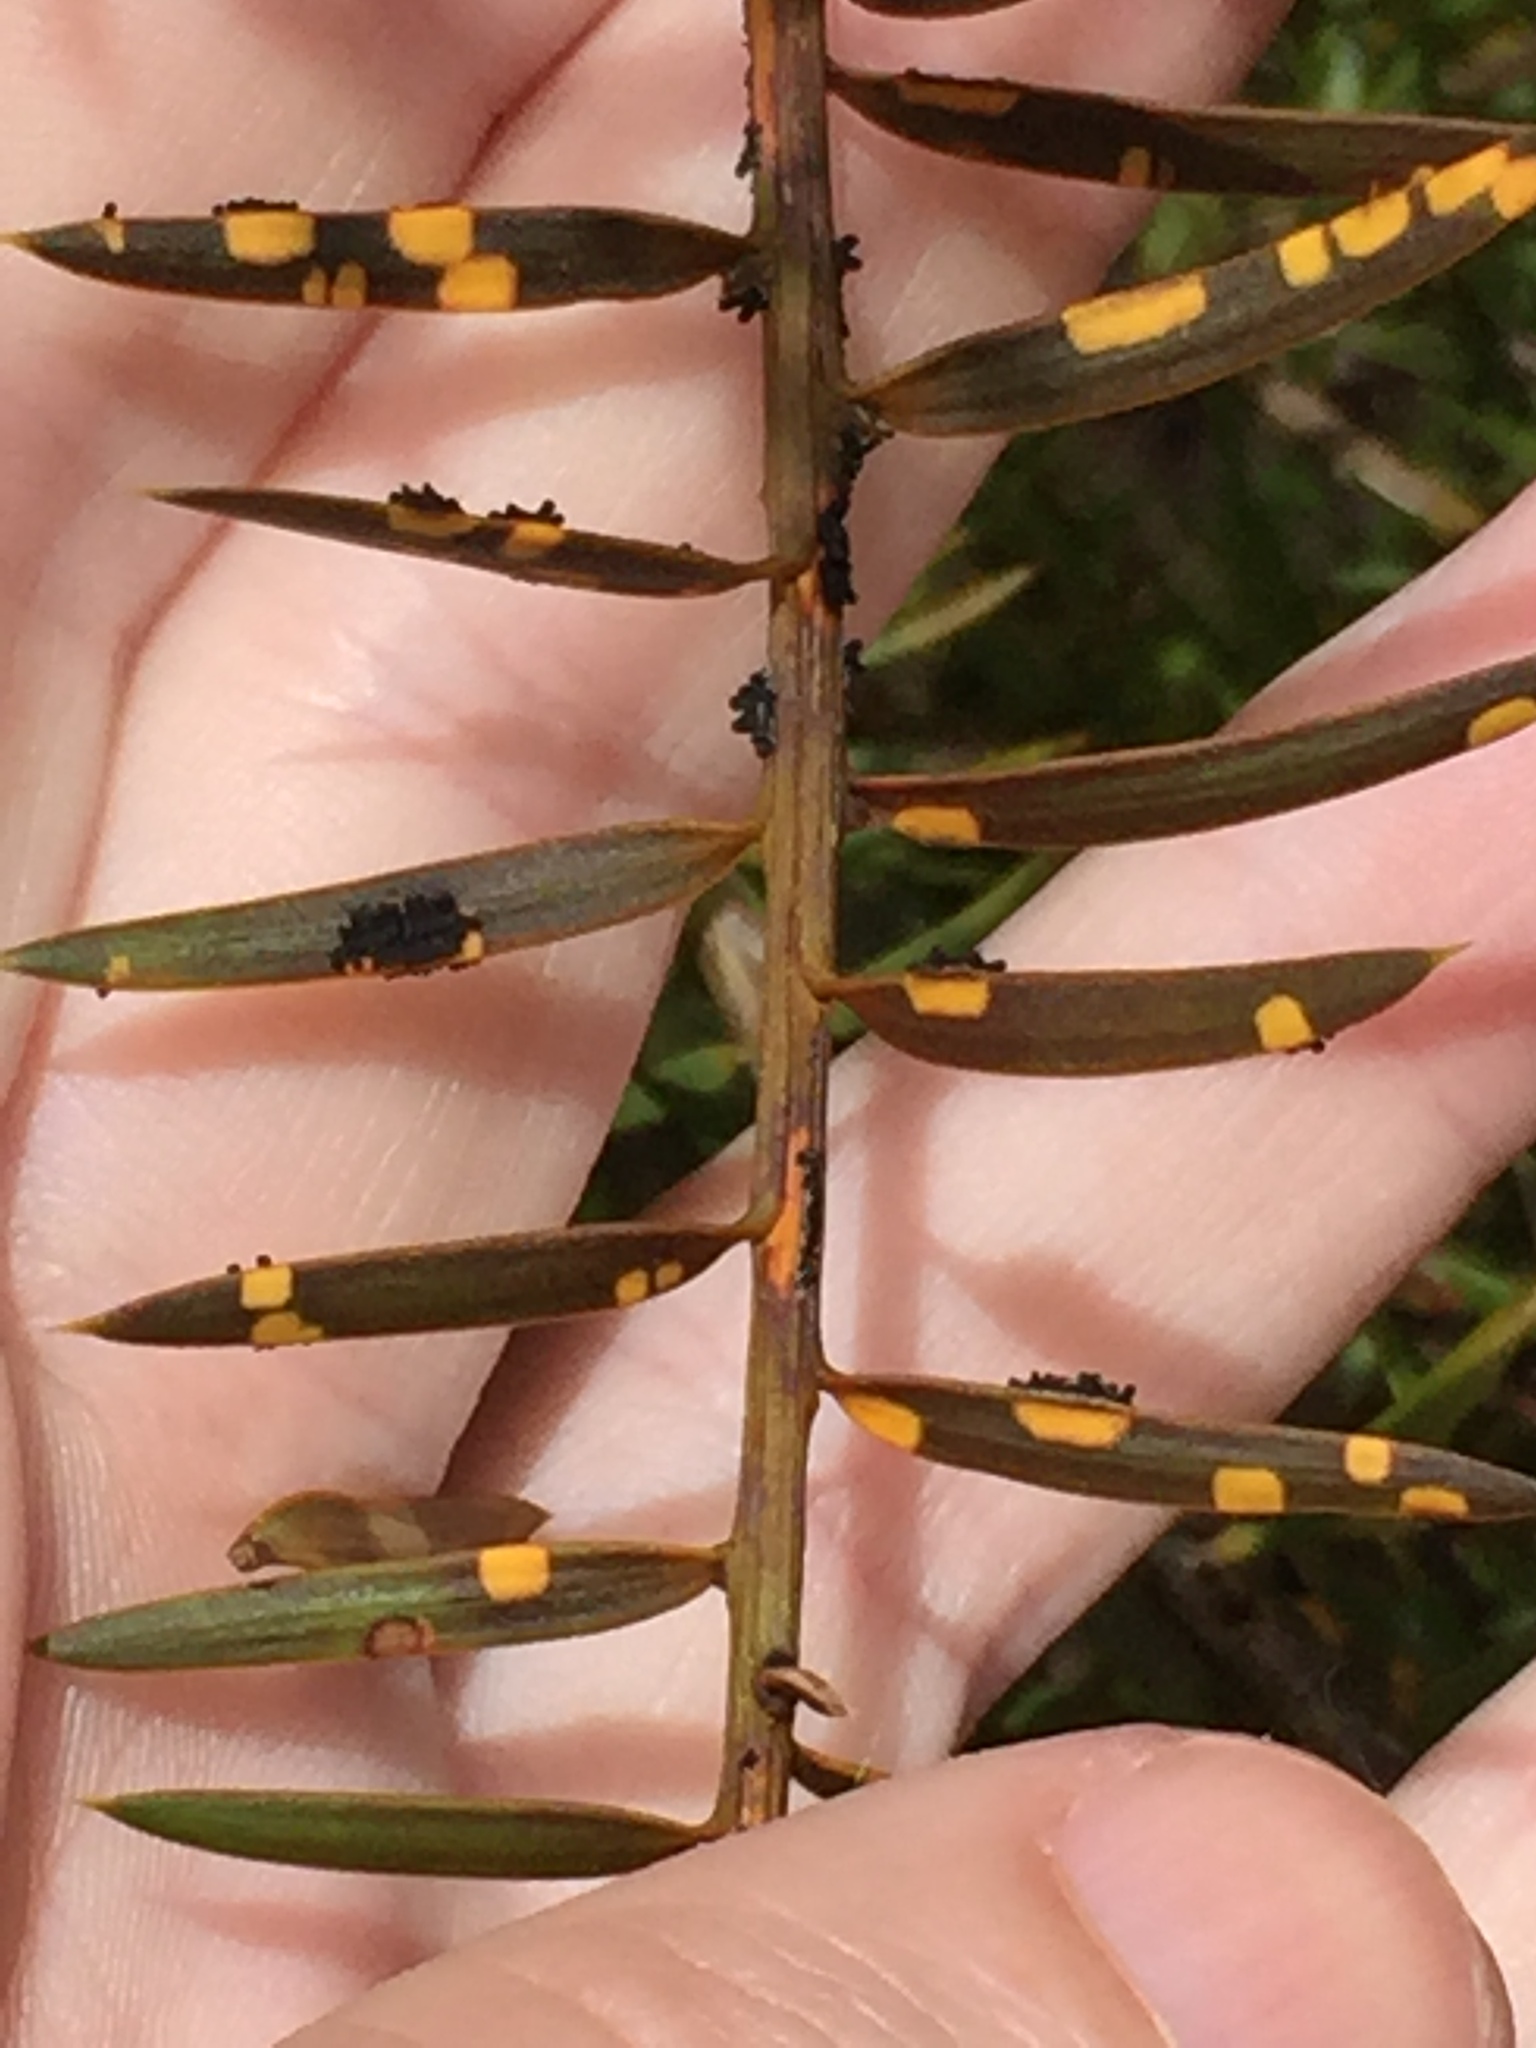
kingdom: Fungi
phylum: Ascomycota
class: Eurotiomycetes
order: Coryneliales
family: Coryneliaceae
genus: Corynelia
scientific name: Corynelia tropica
